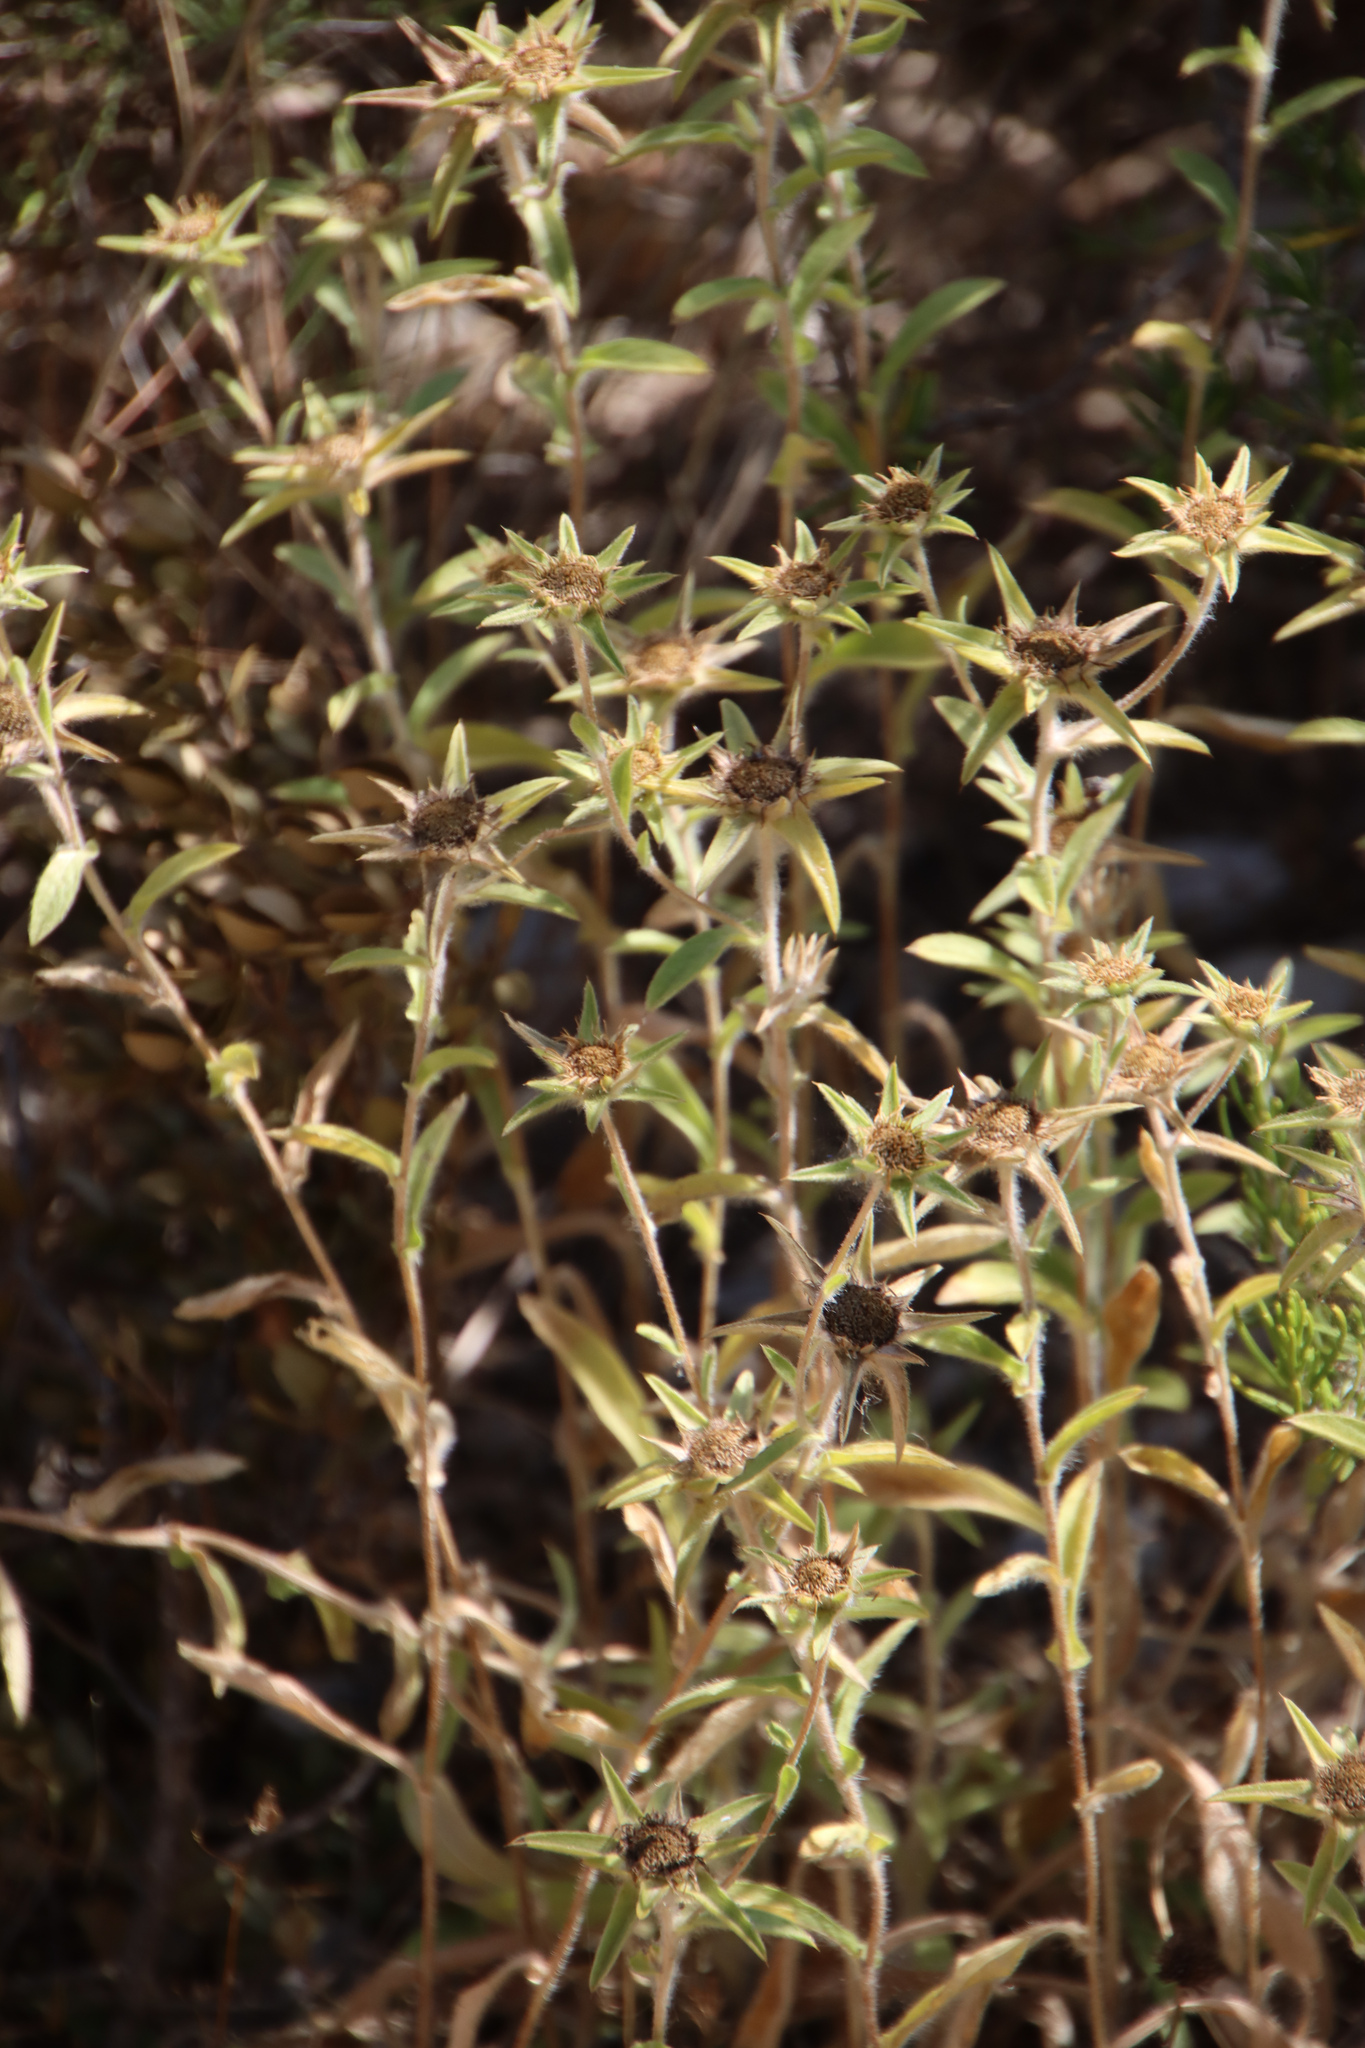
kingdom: Plantae
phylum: Tracheophyta
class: Magnoliopsida
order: Asterales
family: Asteraceae
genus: Pallenis
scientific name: Pallenis spinosa
